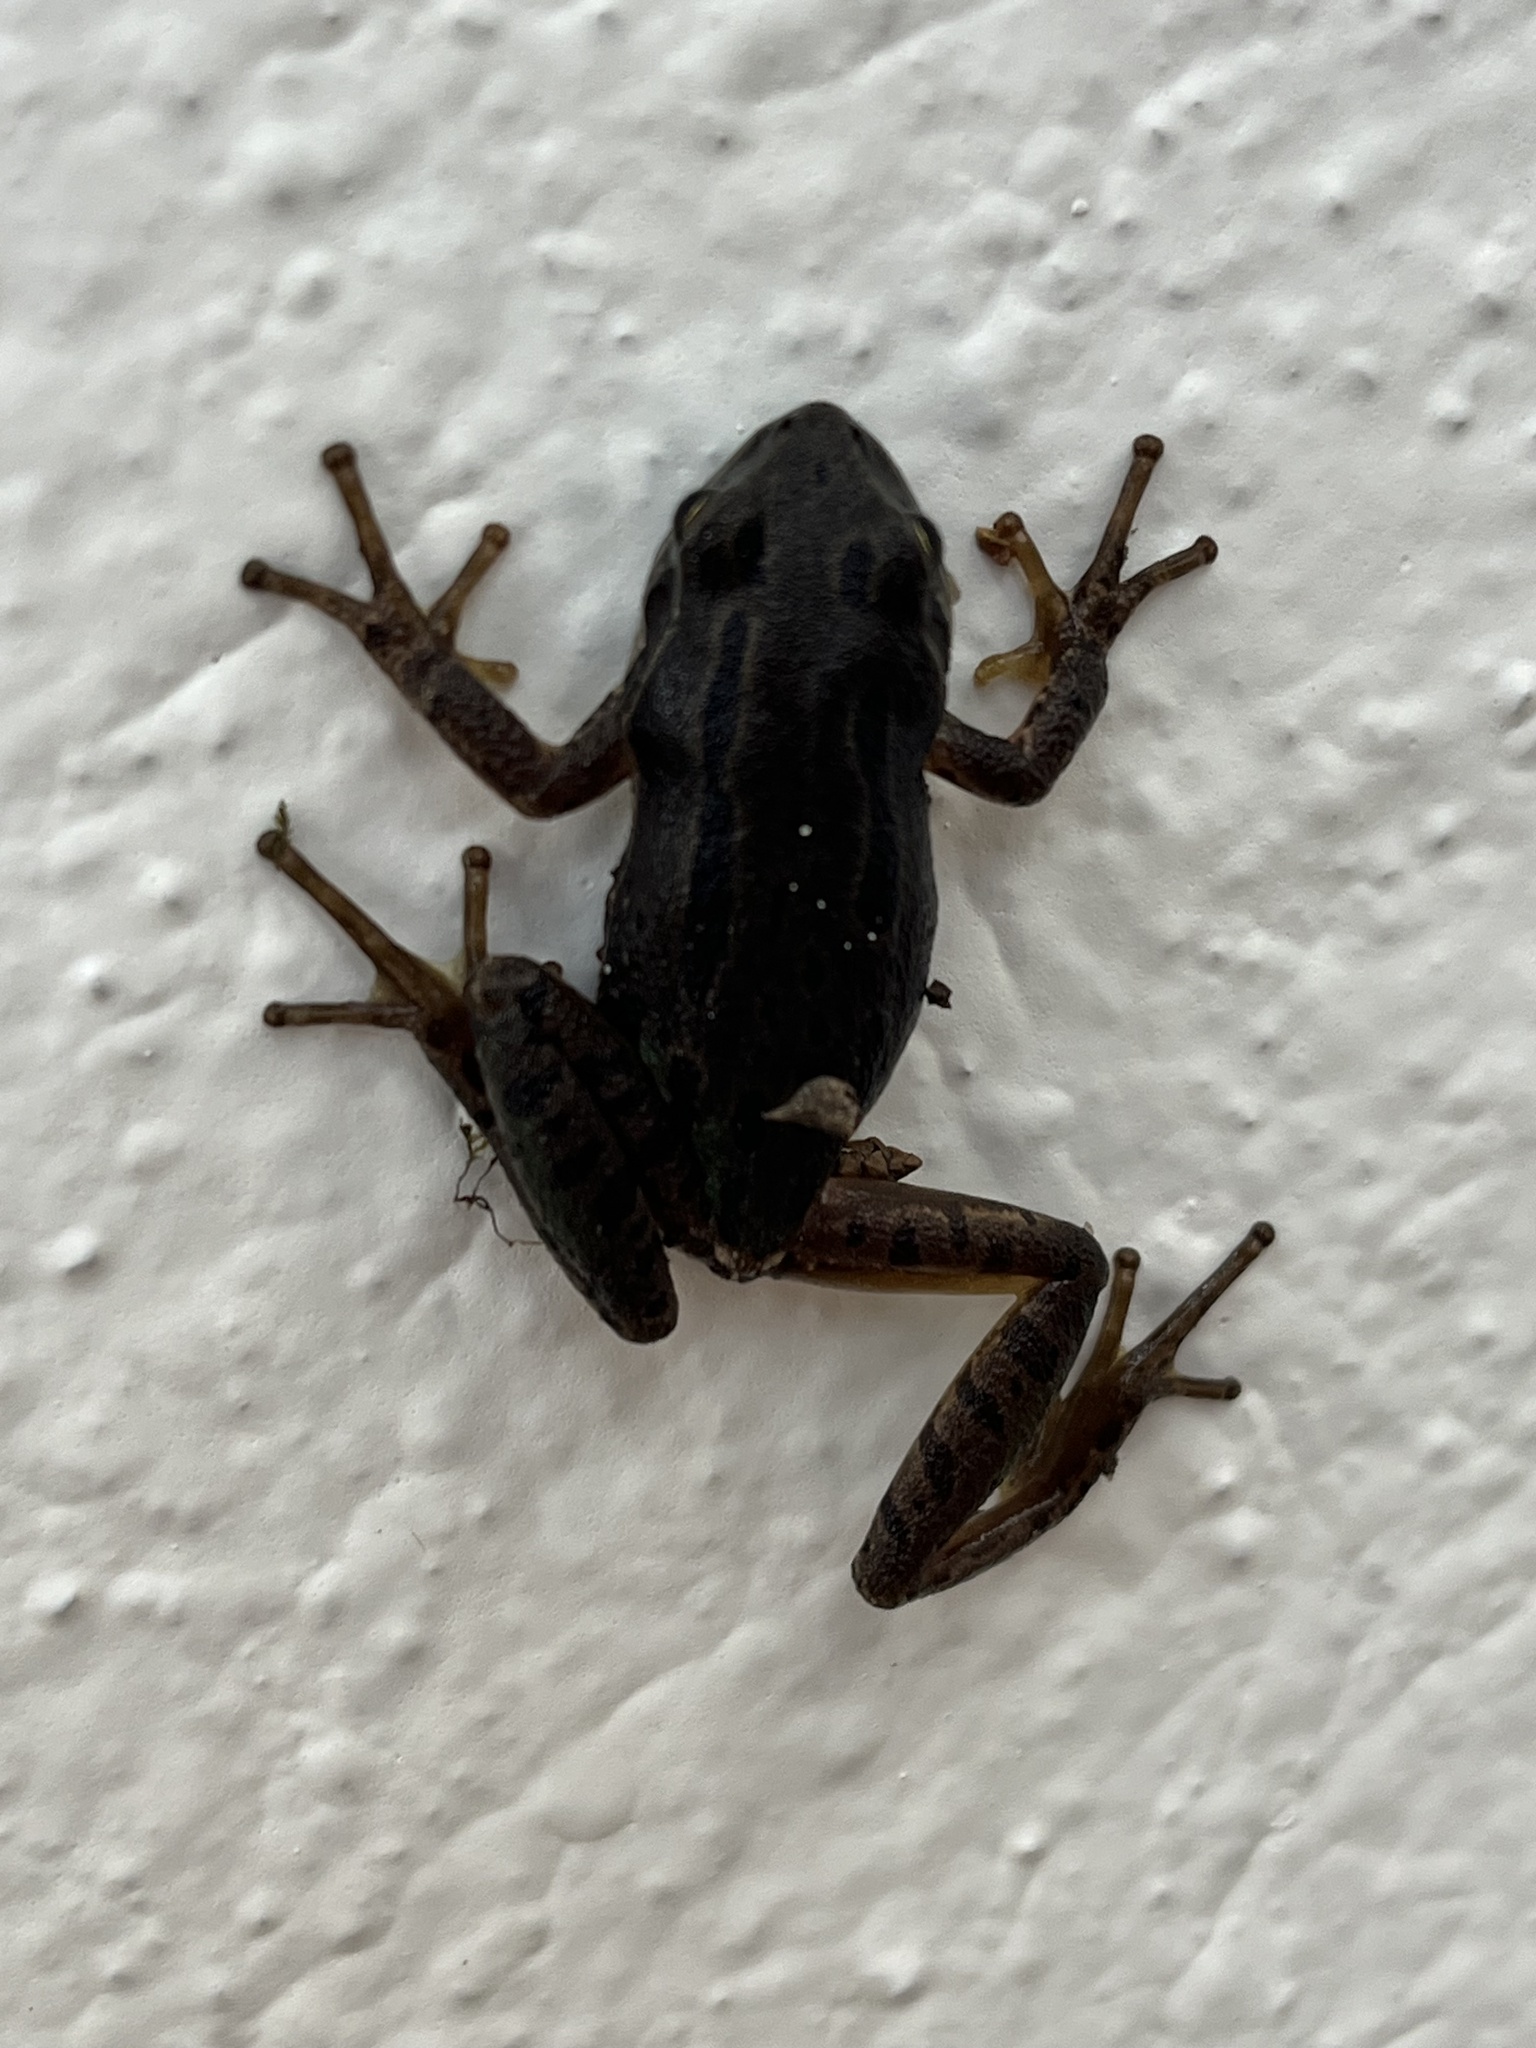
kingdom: Animalia
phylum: Chordata
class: Amphibia
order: Anura
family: Hylidae
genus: Dryophytes
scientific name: Dryophytes eximius
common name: Mountain treefrog
